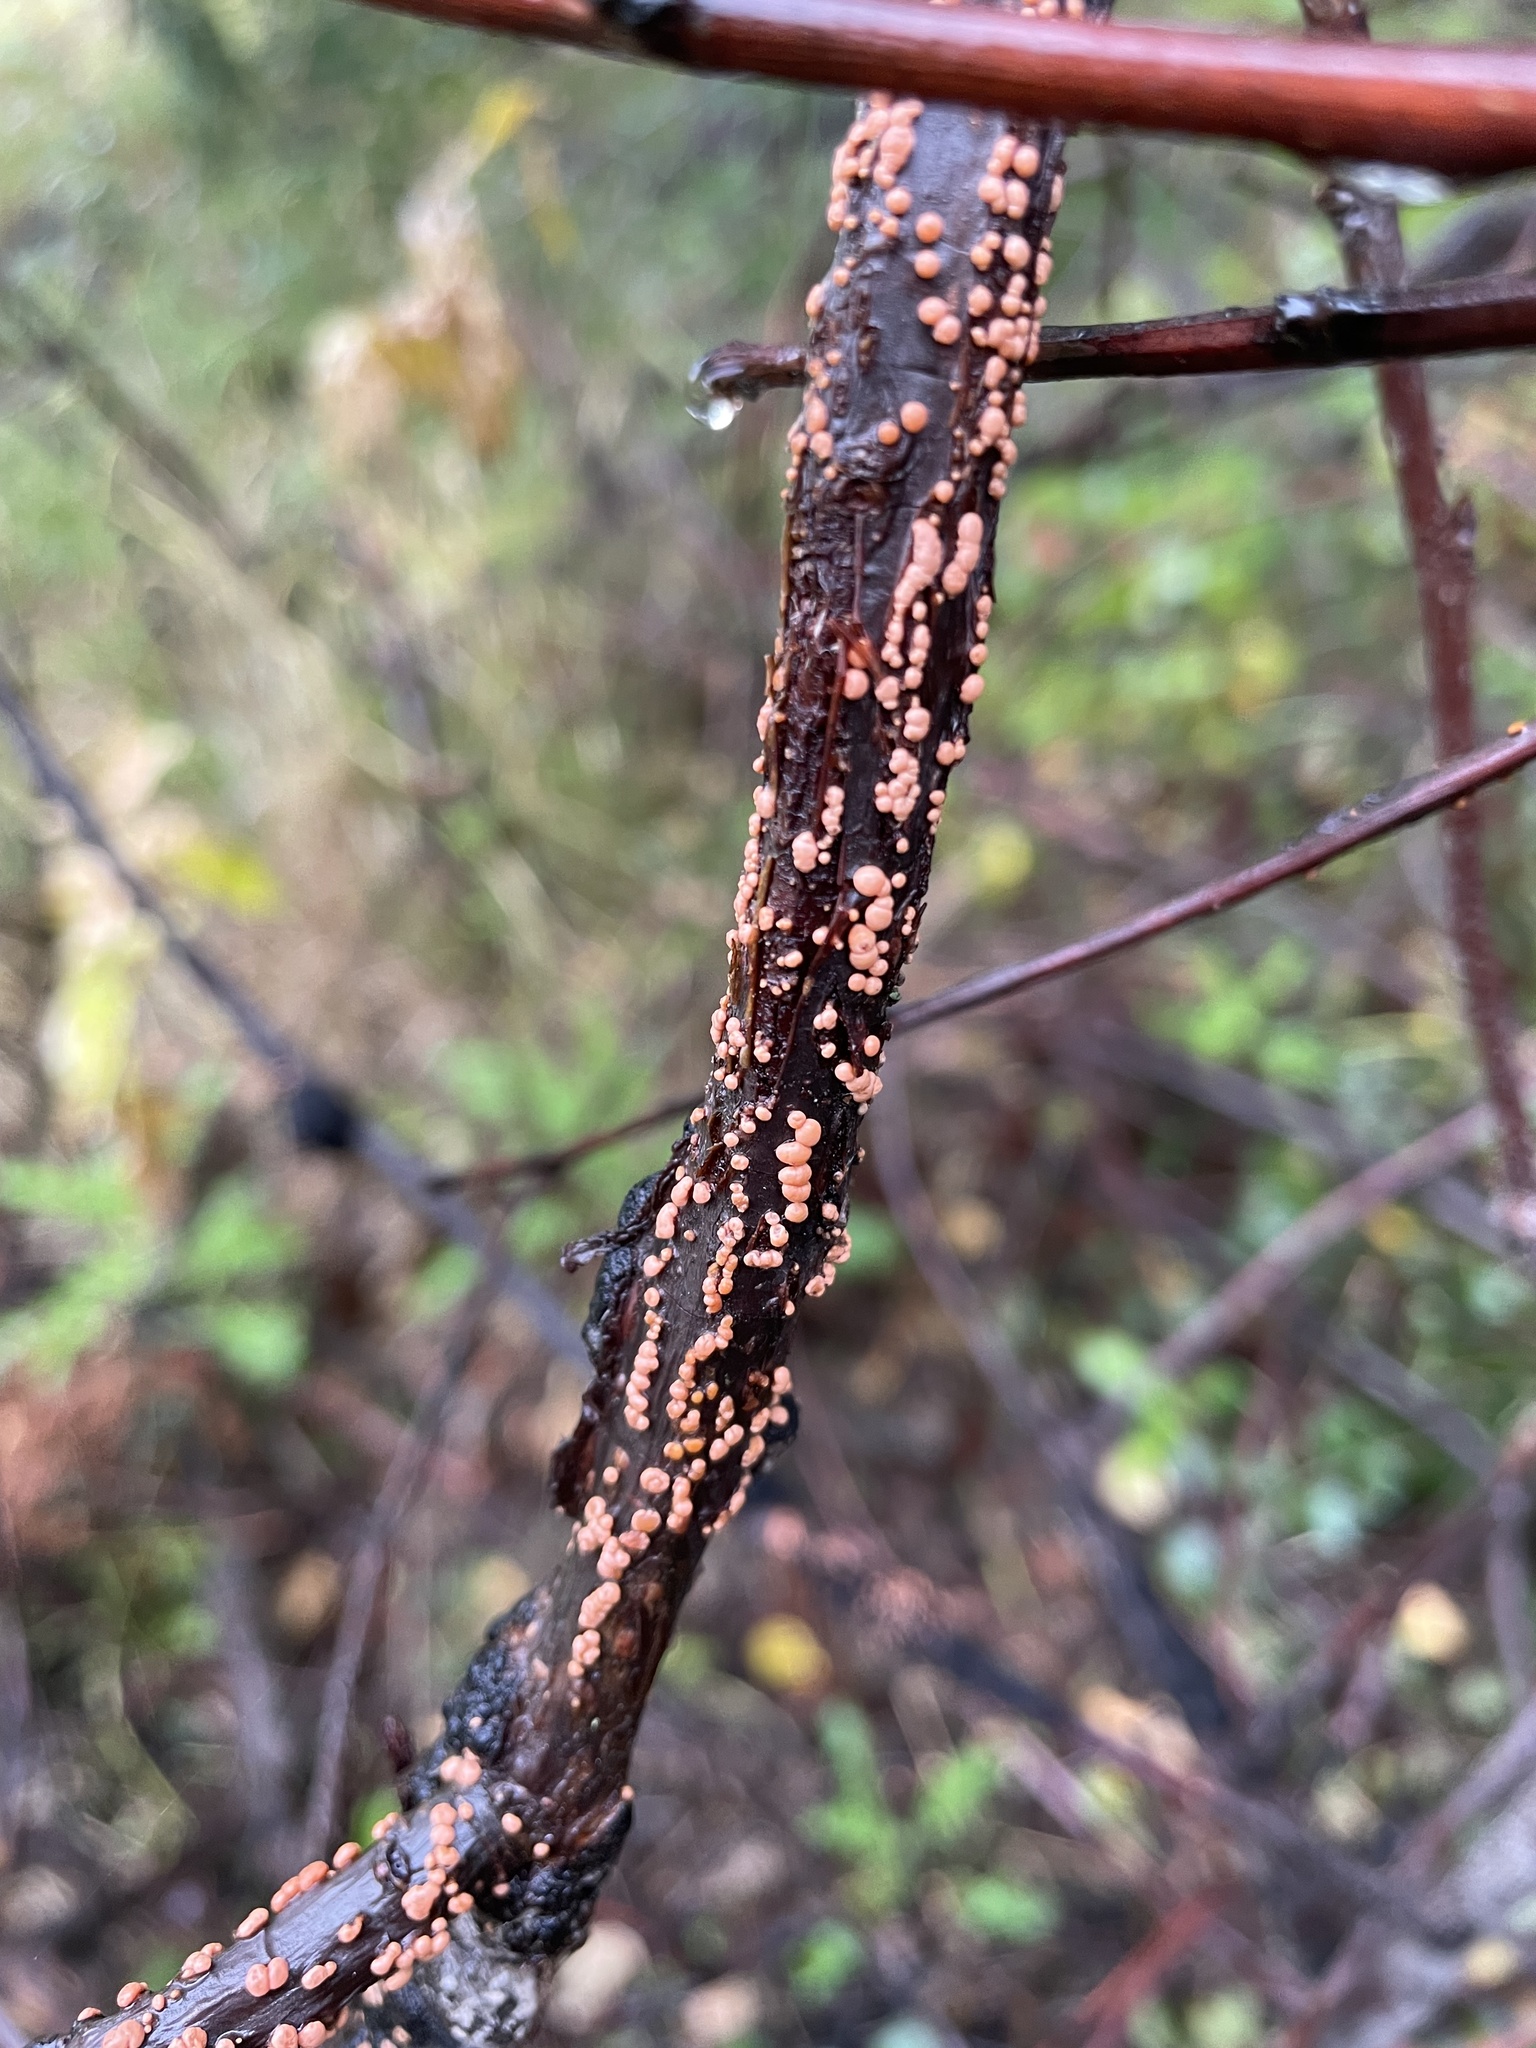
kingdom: Fungi
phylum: Ascomycota
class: Sordariomycetes
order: Hypocreales
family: Nectriaceae
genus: Nectria
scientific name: Nectria cinnabarina
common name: Coral spot
